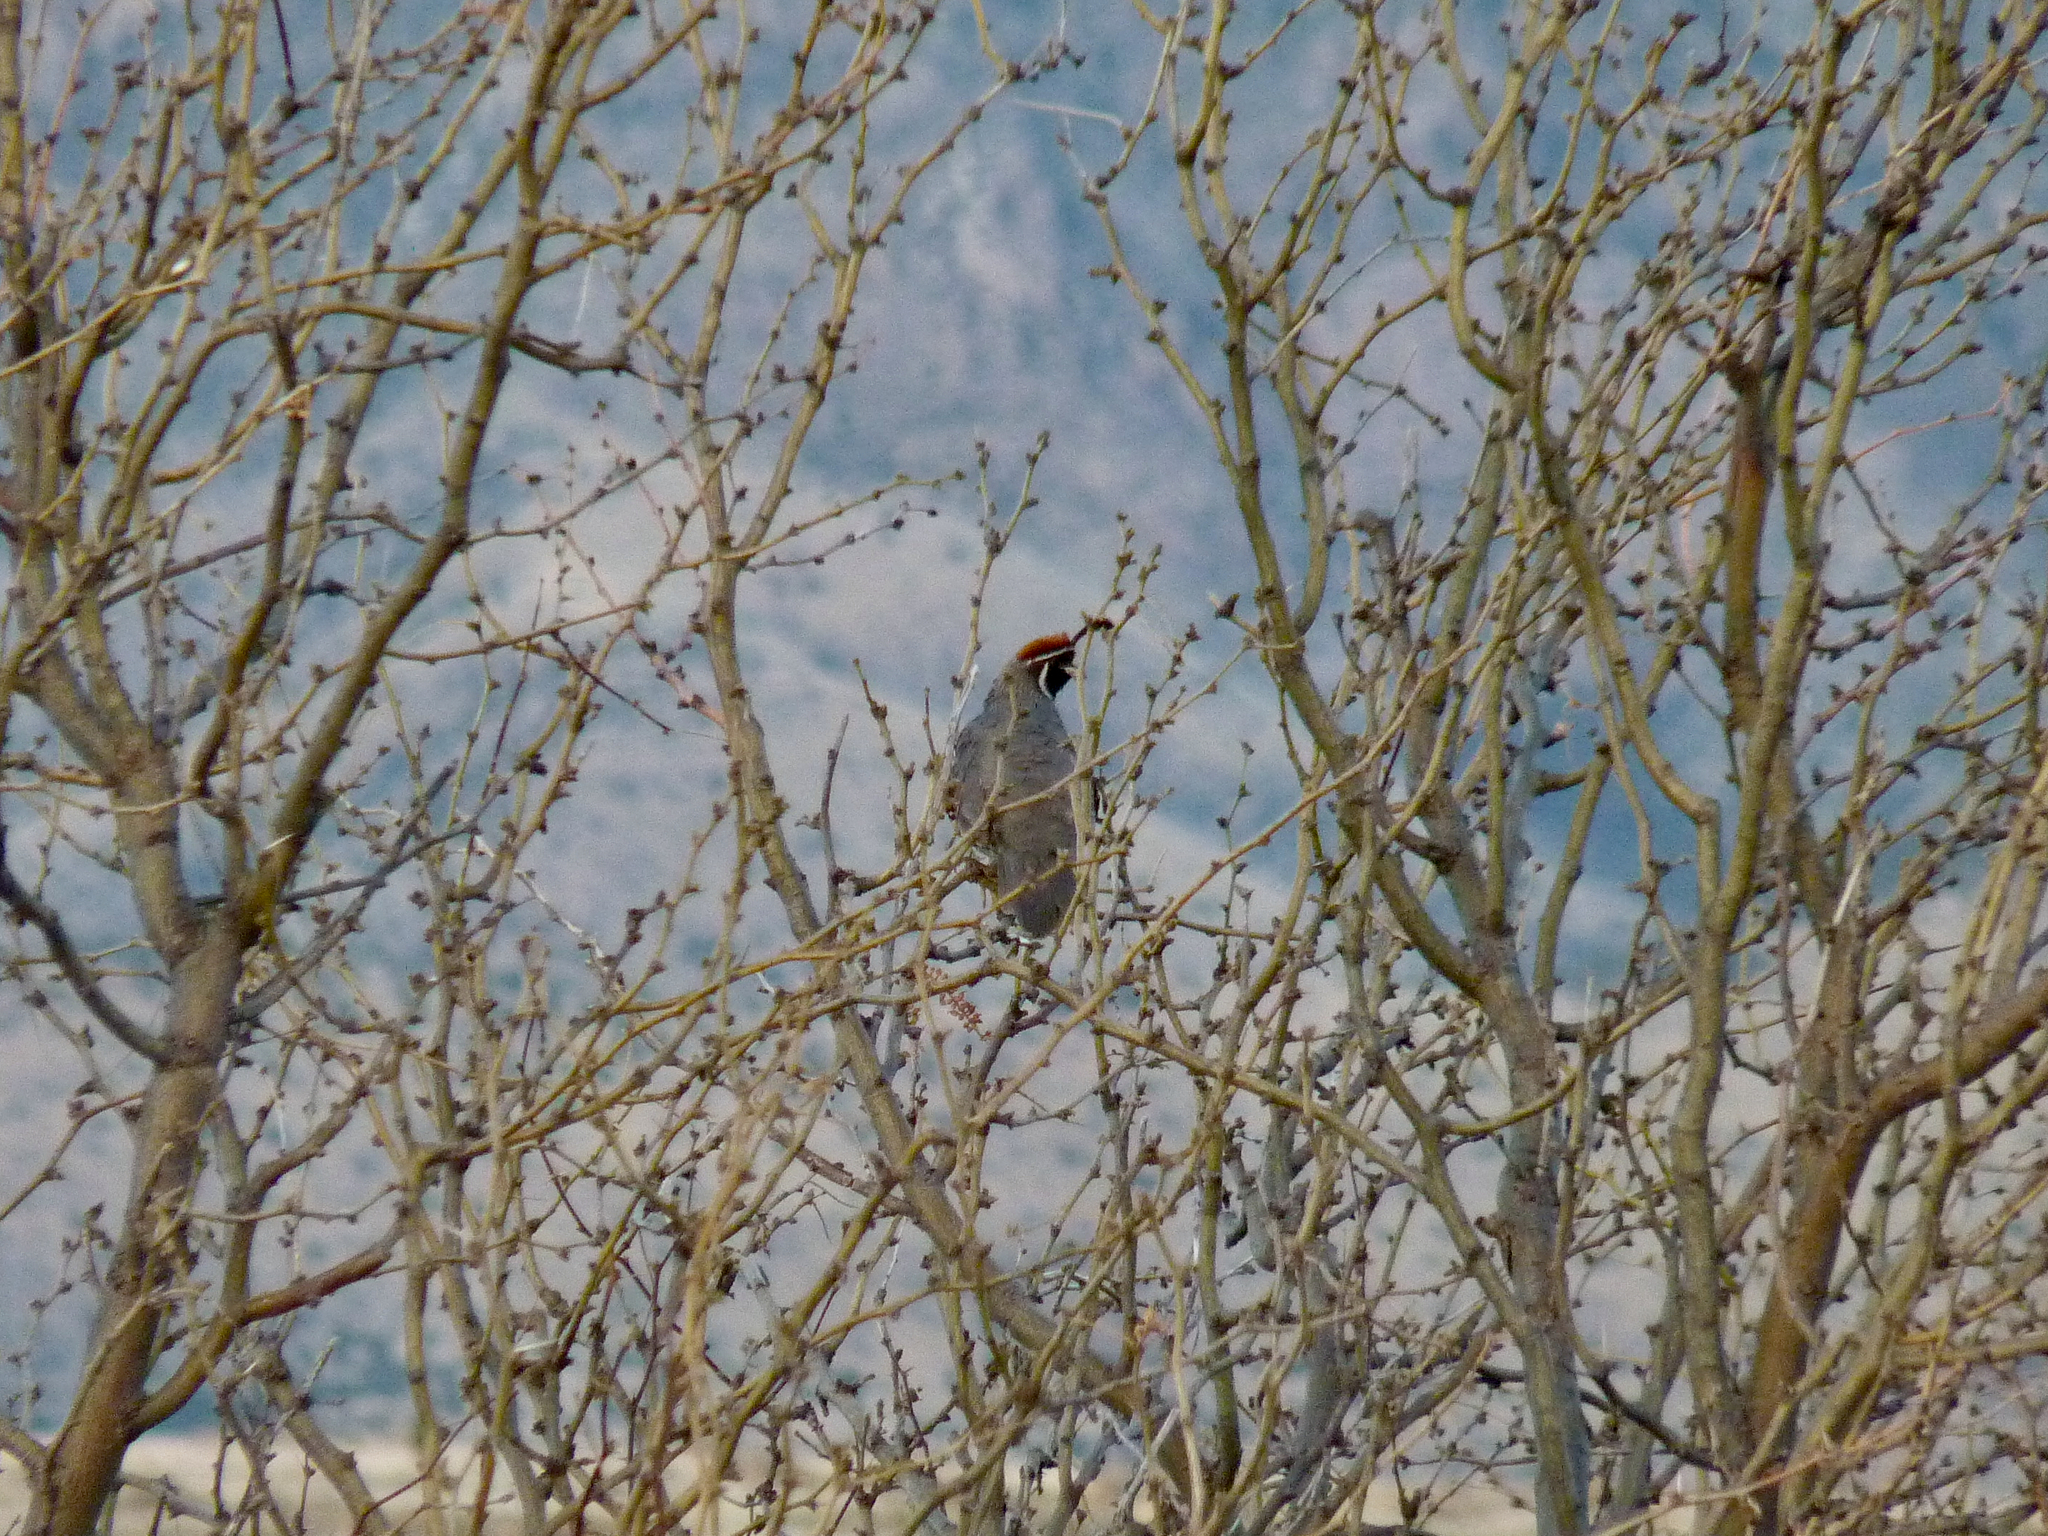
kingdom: Animalia
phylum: Chordata
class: Aves
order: Galliformes
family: Odontophoridae
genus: Callipepla
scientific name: Callipepla gambelii
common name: Gambel's quail
